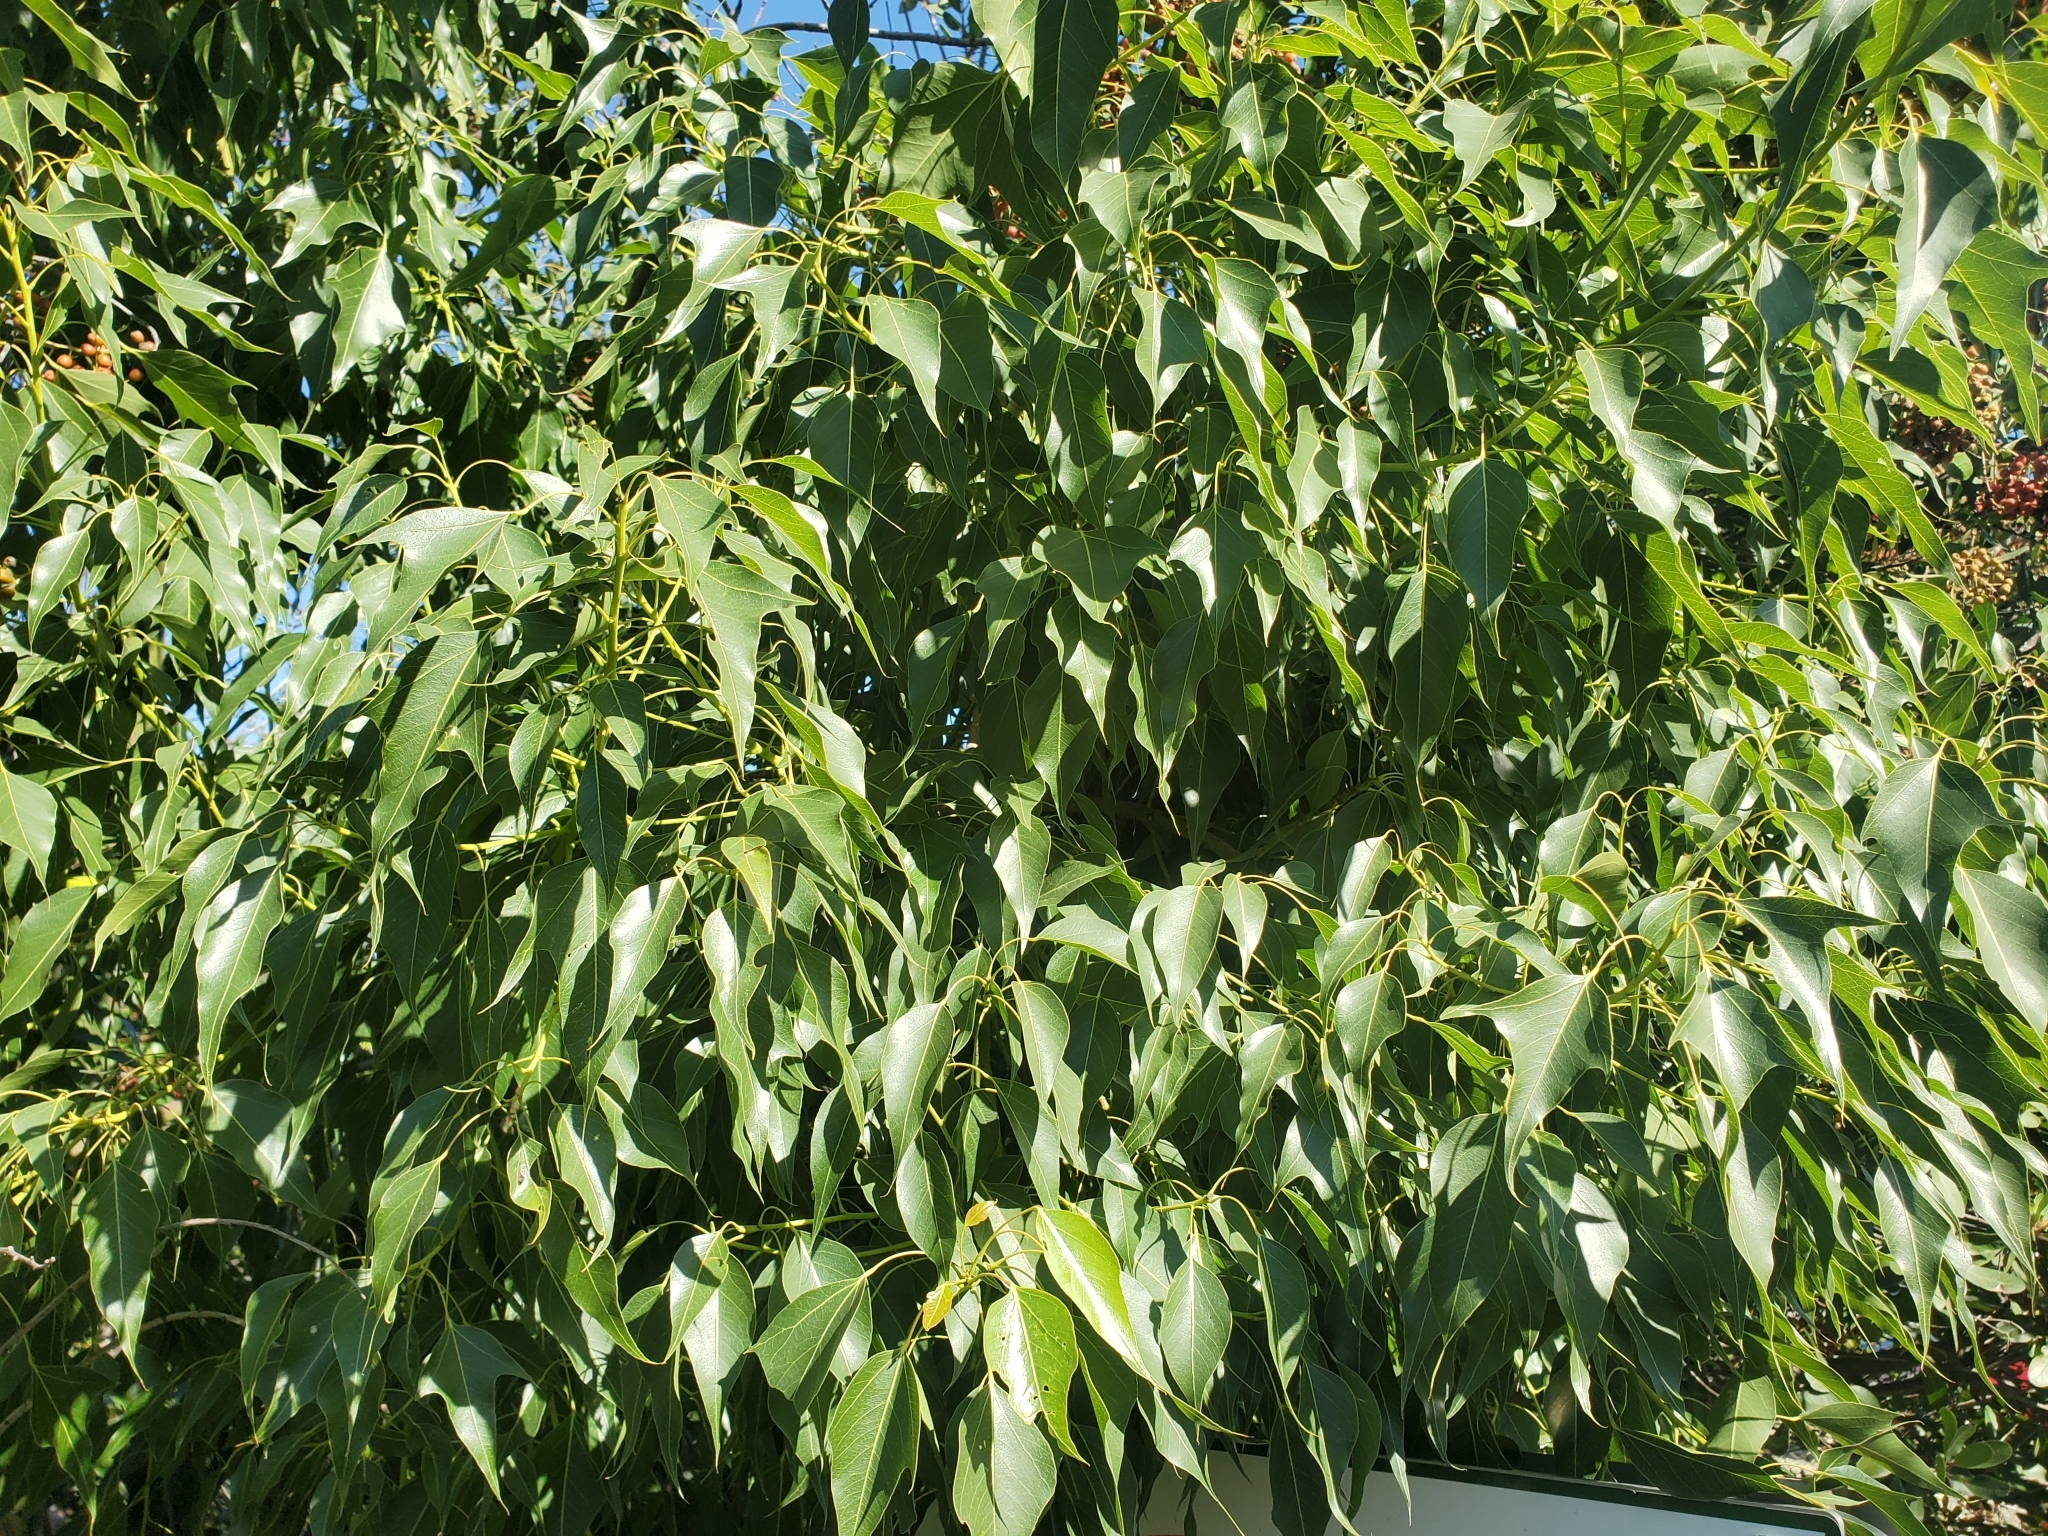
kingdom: Plantae
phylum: Tracheophyta
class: Magnoliopsida
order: Malvales
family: Malvaceae
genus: Brachychiton
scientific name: Brachychiton populneus
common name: Kurrajong
